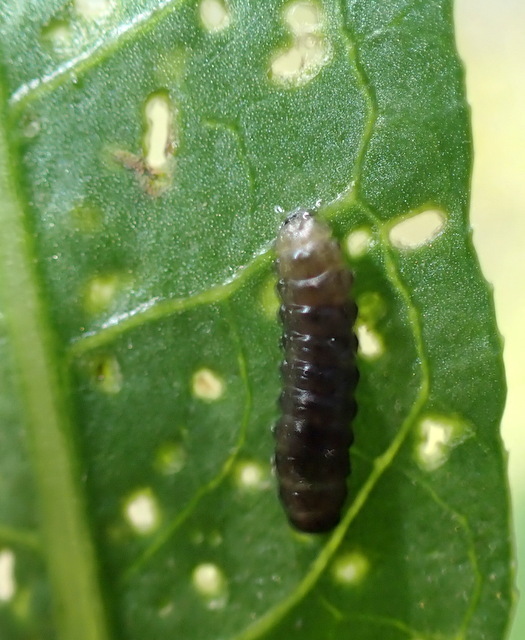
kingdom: Animalia
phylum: Arthropoda
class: Insecta
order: Coleoptera
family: Chrysomelidae
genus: Agasicles
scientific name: Agasicles hygrophila
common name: Alligatorweed flea beetle
